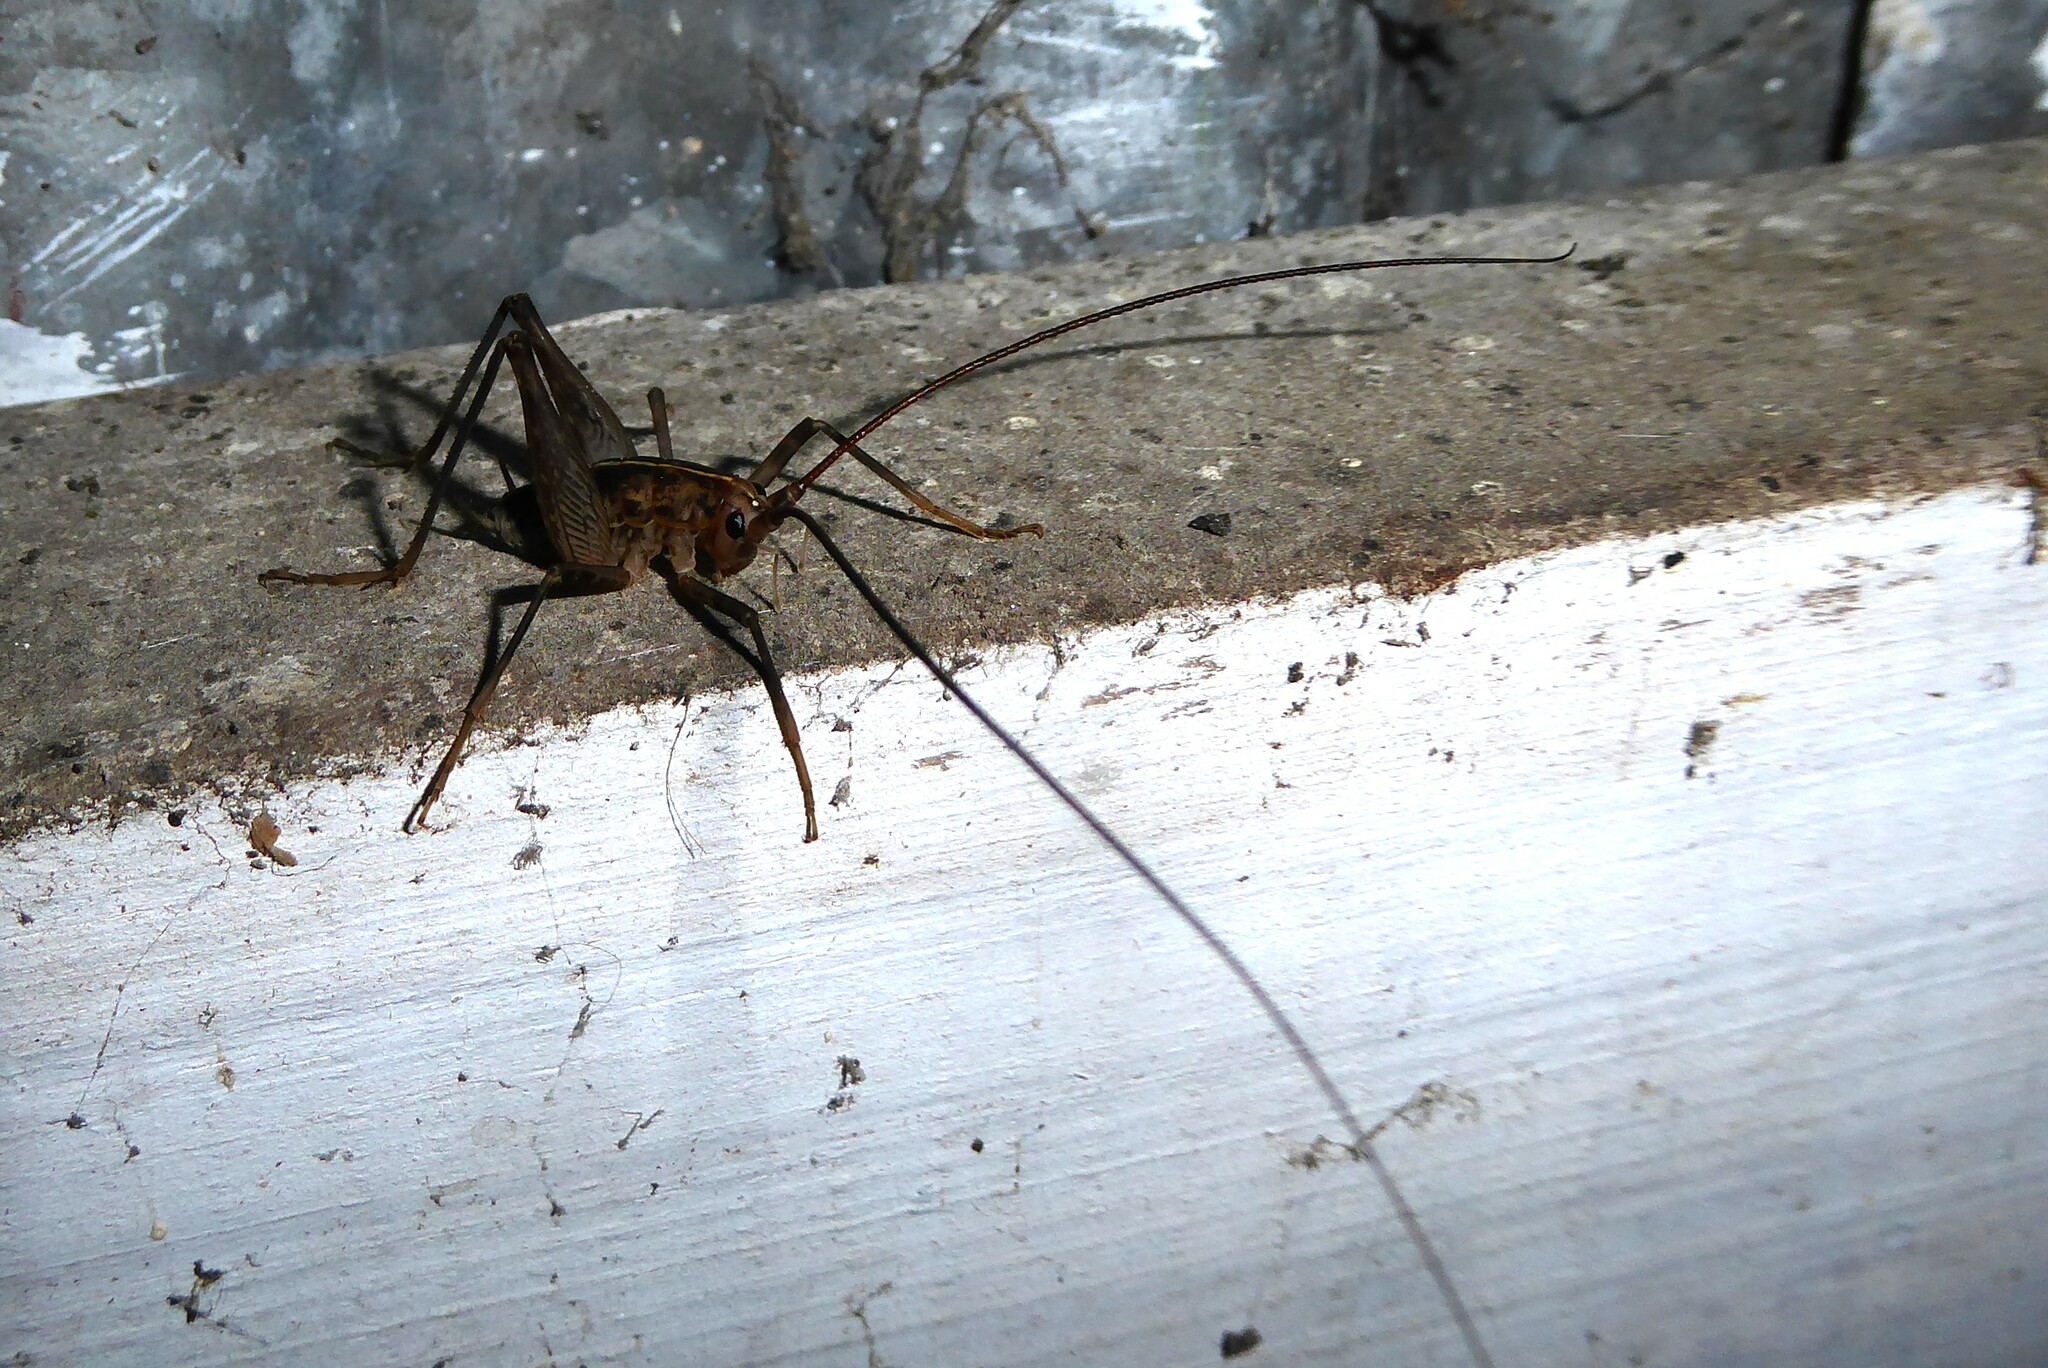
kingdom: Animalia
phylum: Arthropoda
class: Insecta
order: Orthoptera
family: Rhaphidophoridae
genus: Pleioplectron
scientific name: Pleioplectron simplex
